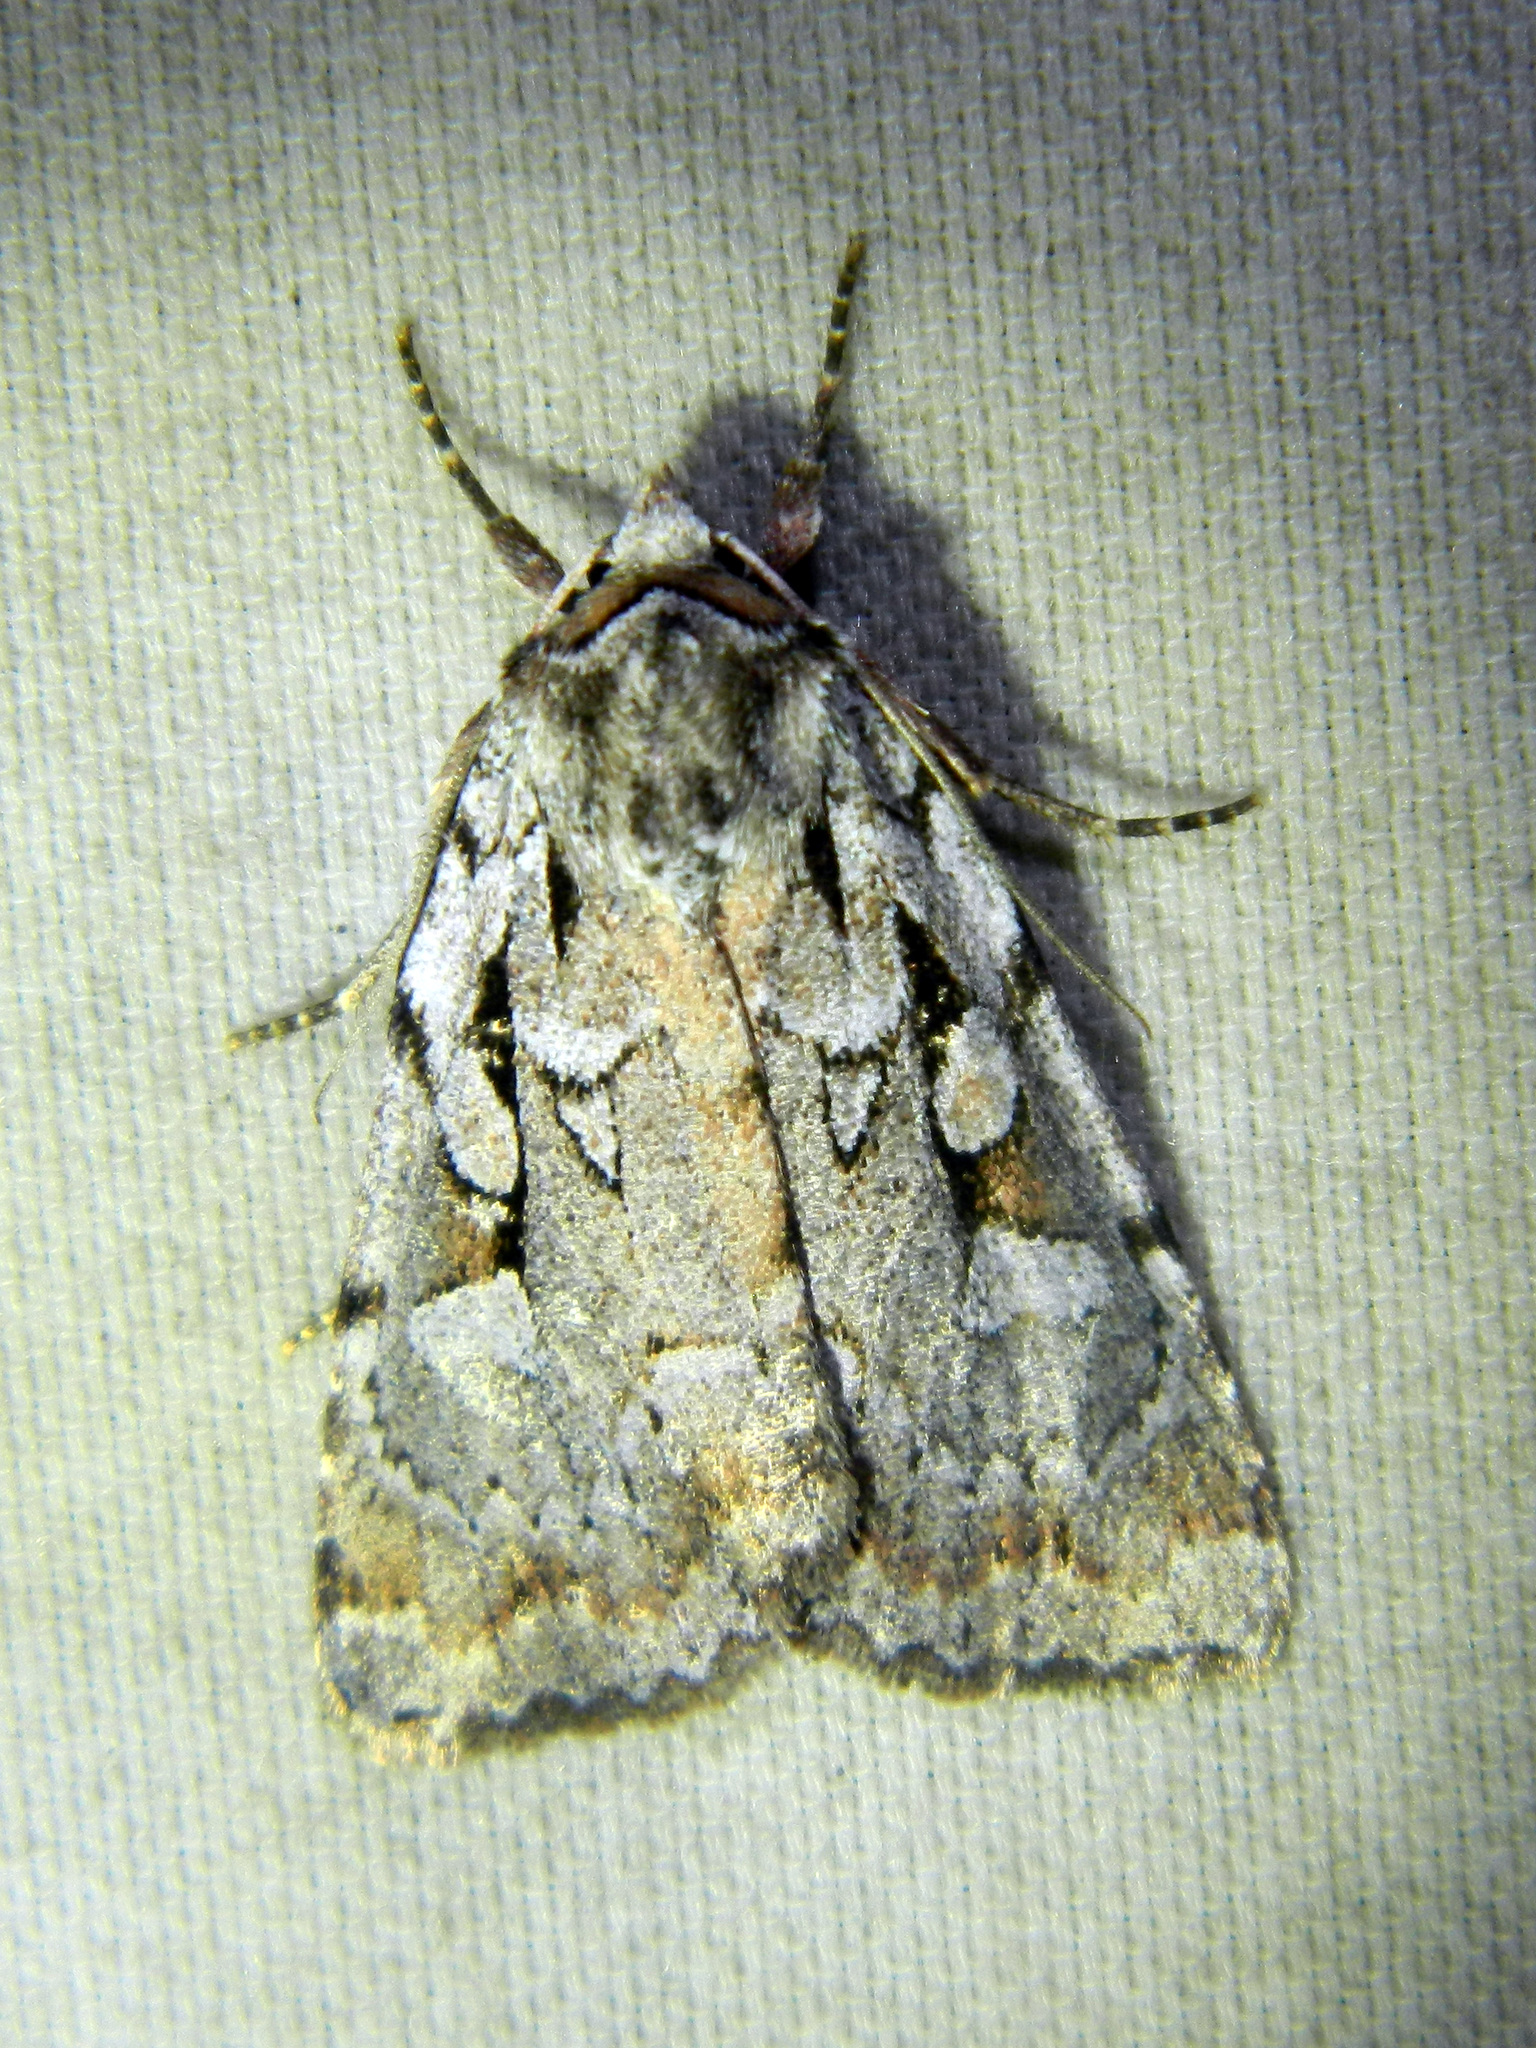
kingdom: Animalia
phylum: Arthropoda
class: Insecta
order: Lepidoptera
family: Noctuidae
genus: Xestia
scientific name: Xestia badicollis
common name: Northern variable dart
